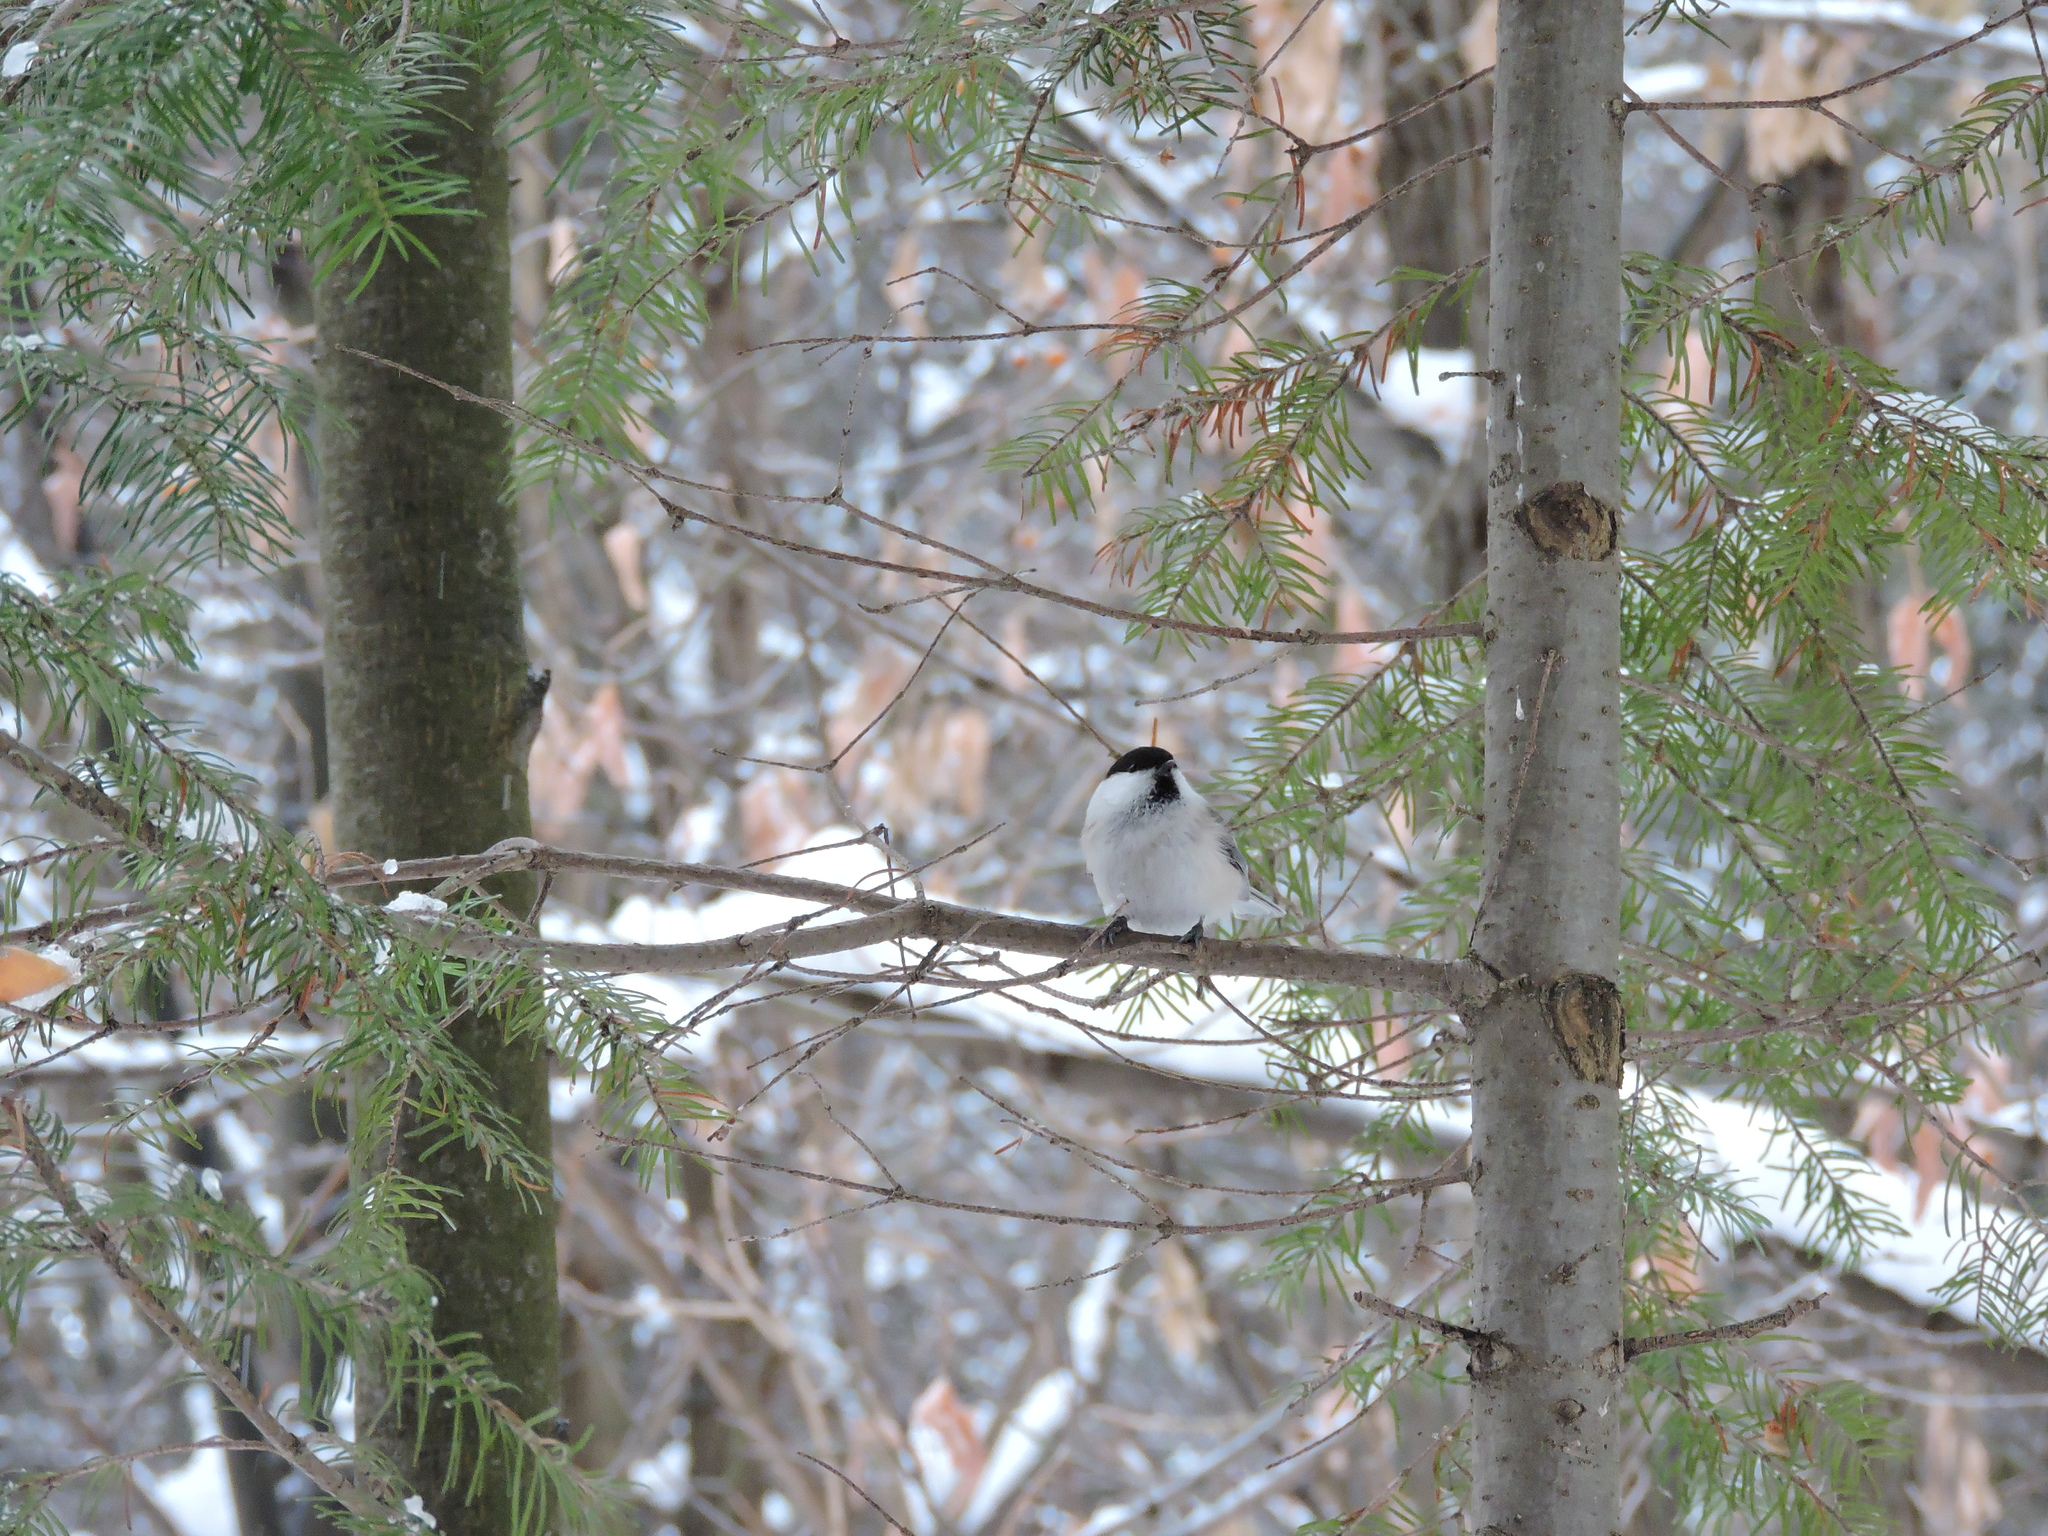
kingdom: Animalia
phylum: Chordata
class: Aves
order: Passeriformes
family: Paridae
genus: Poecile
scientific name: Poecile montanus
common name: Willow tit
